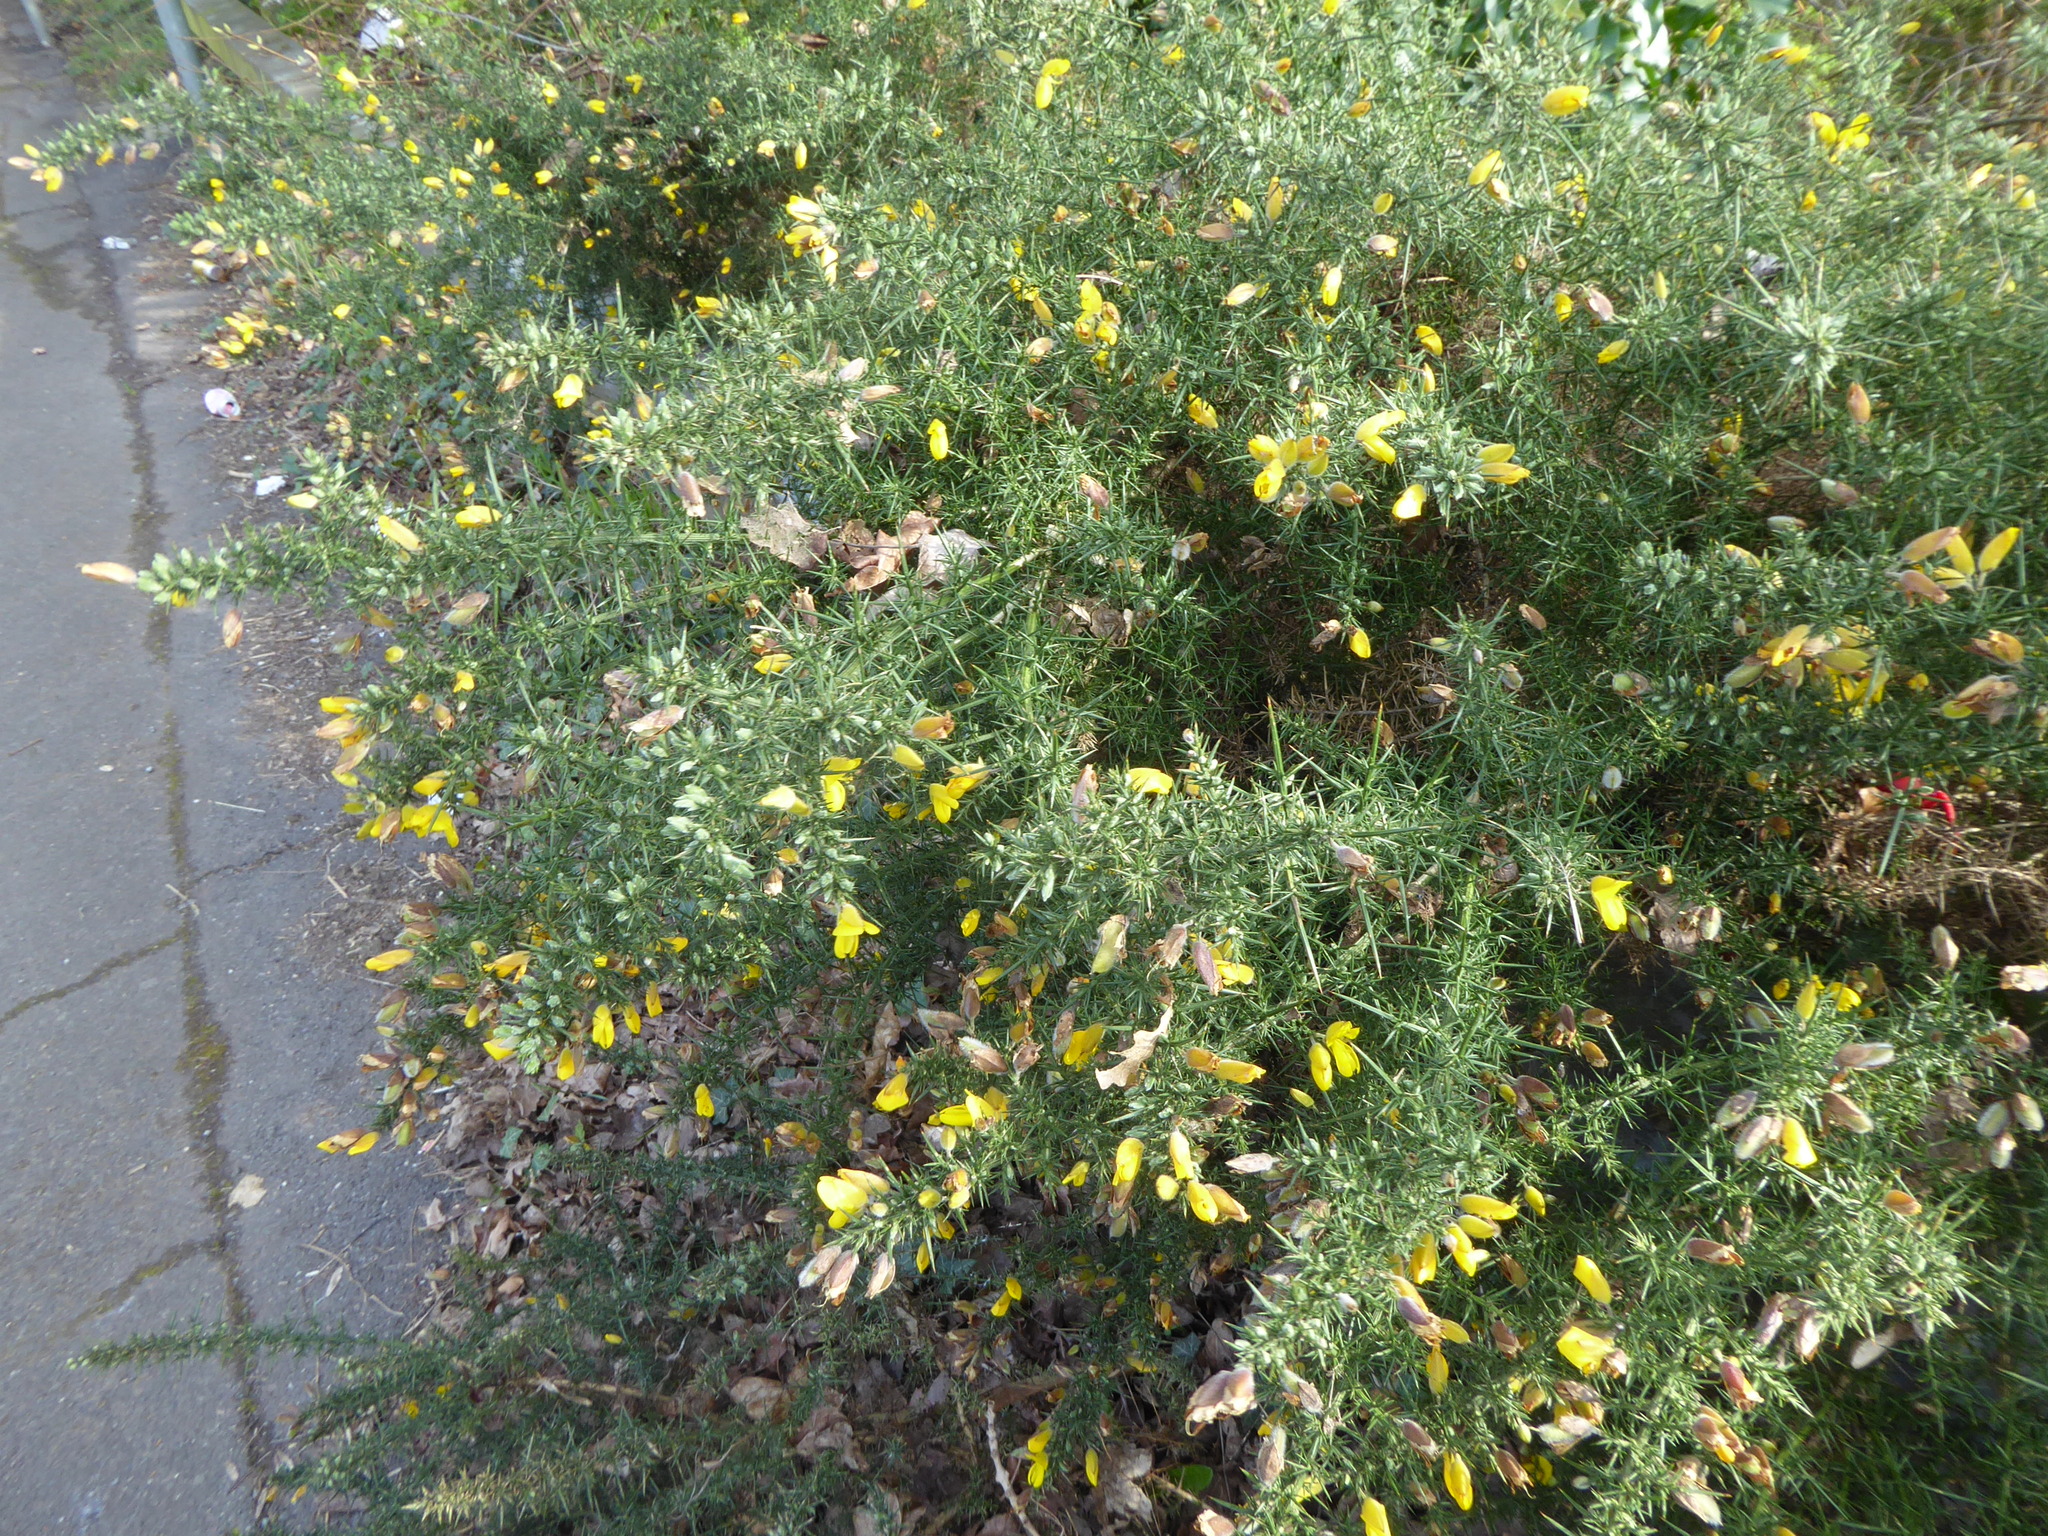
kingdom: Plantae
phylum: Tracheophyta
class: Magnoliopsida
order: Fabales
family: Fabaceae
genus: Ulex
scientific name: Ulex europaeus
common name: Common gorse
